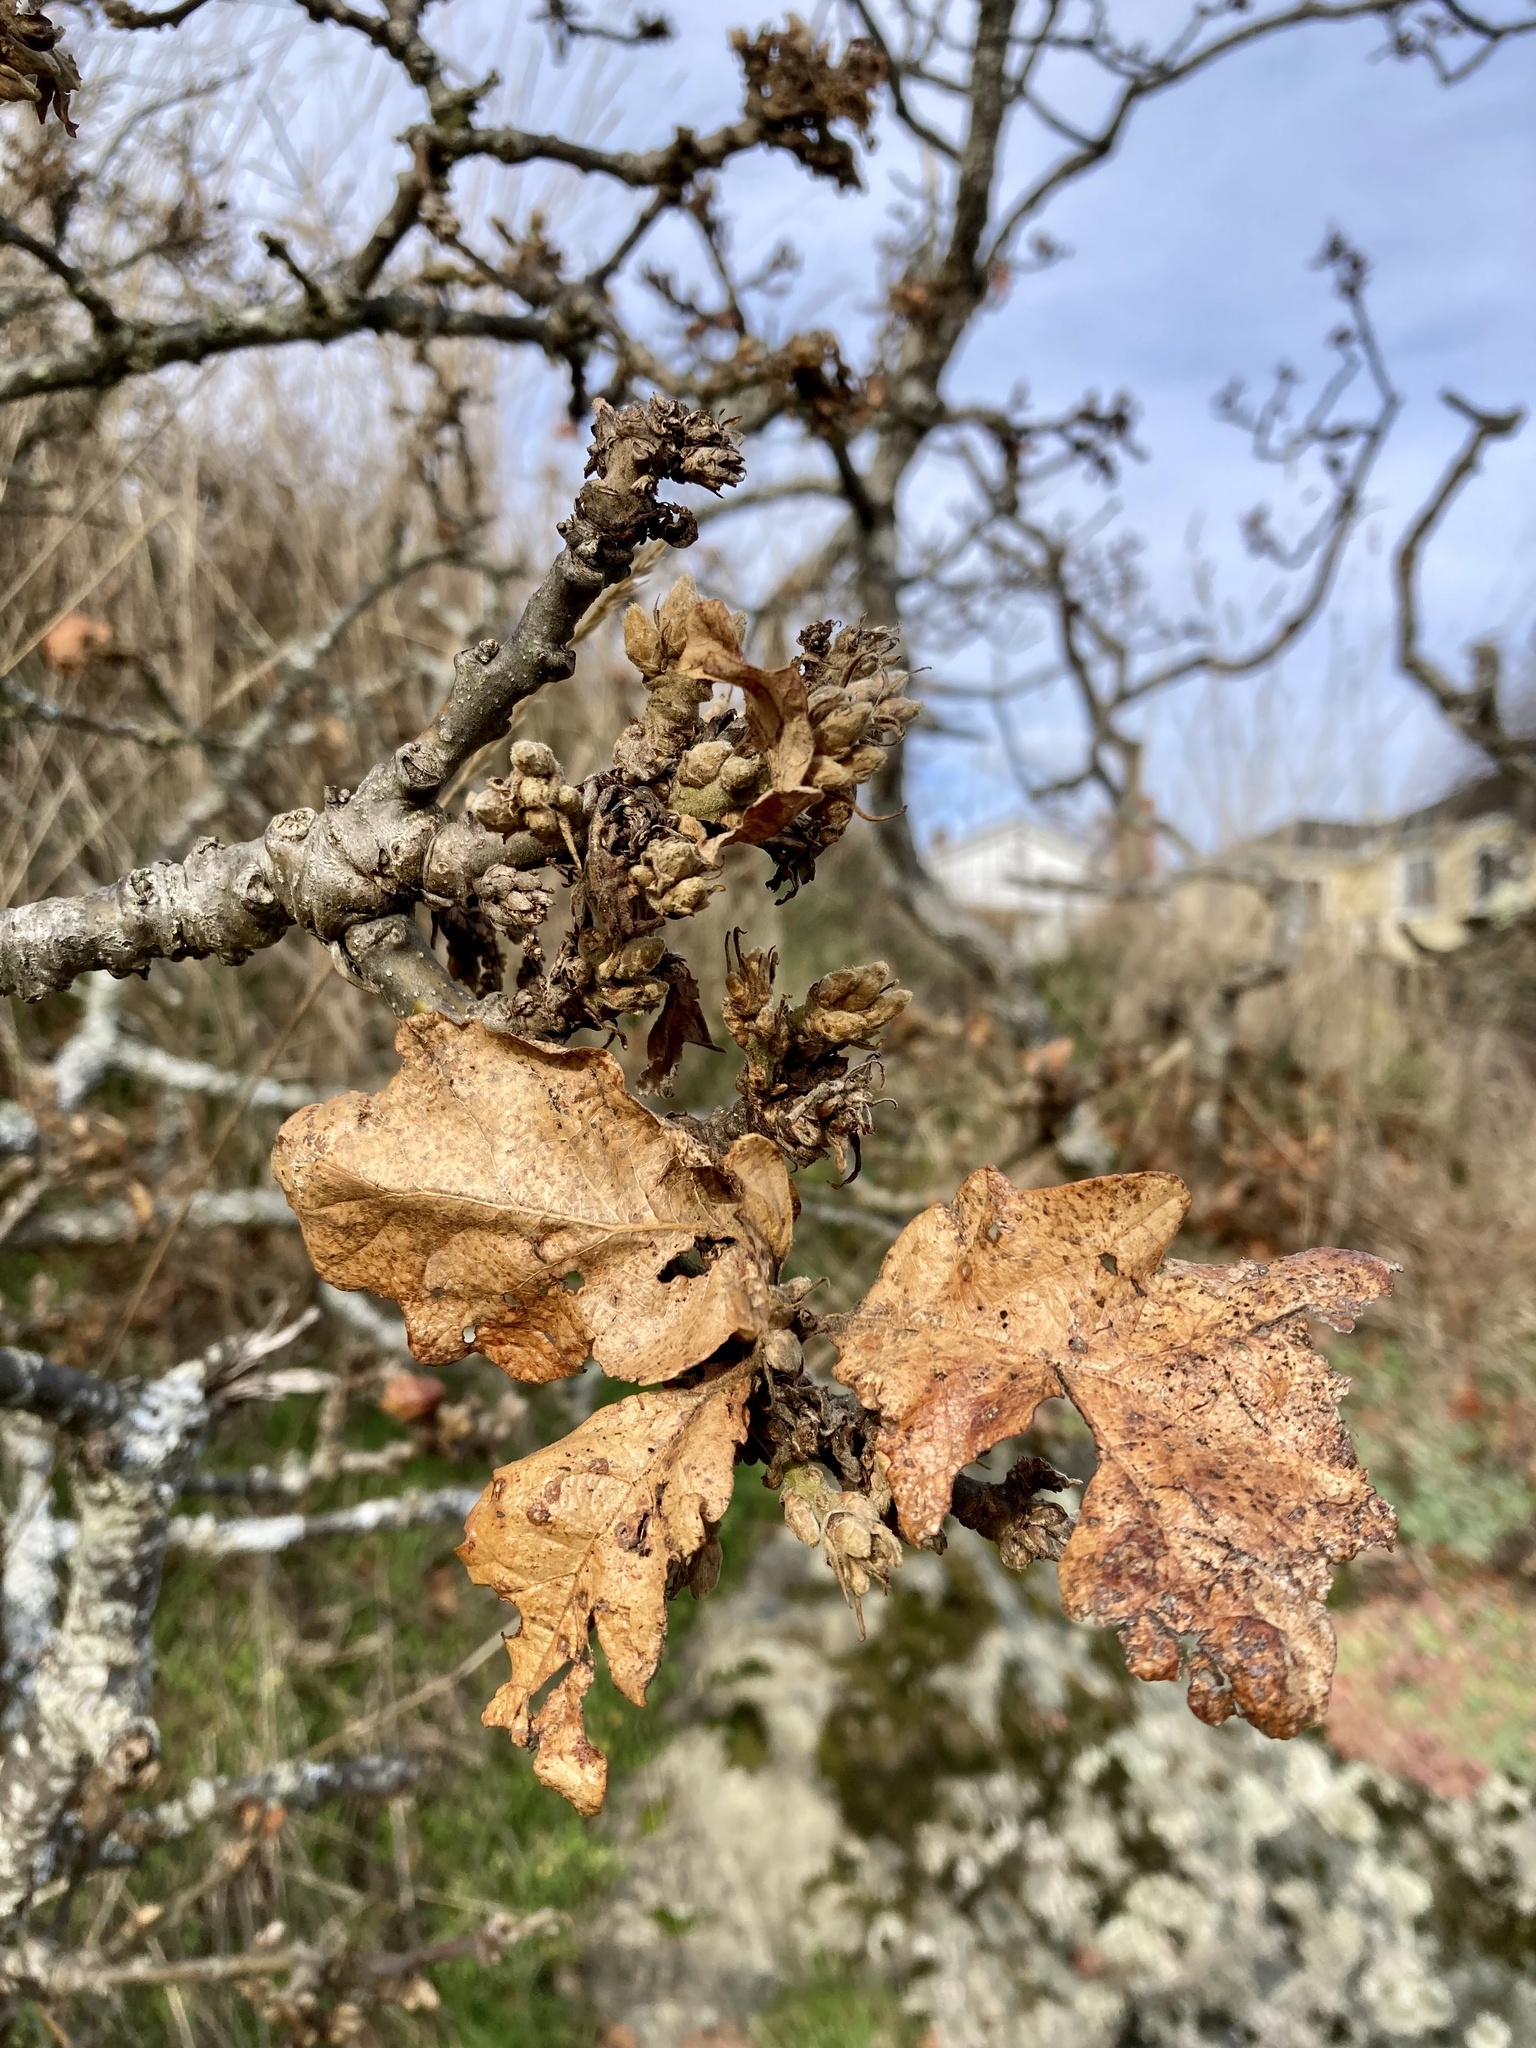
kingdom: Plantae
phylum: Tracheophyta
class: Magnoliopsida
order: Fagales
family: Fagaceae
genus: Quercus
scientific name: Quercus garryana
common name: Garry oak
